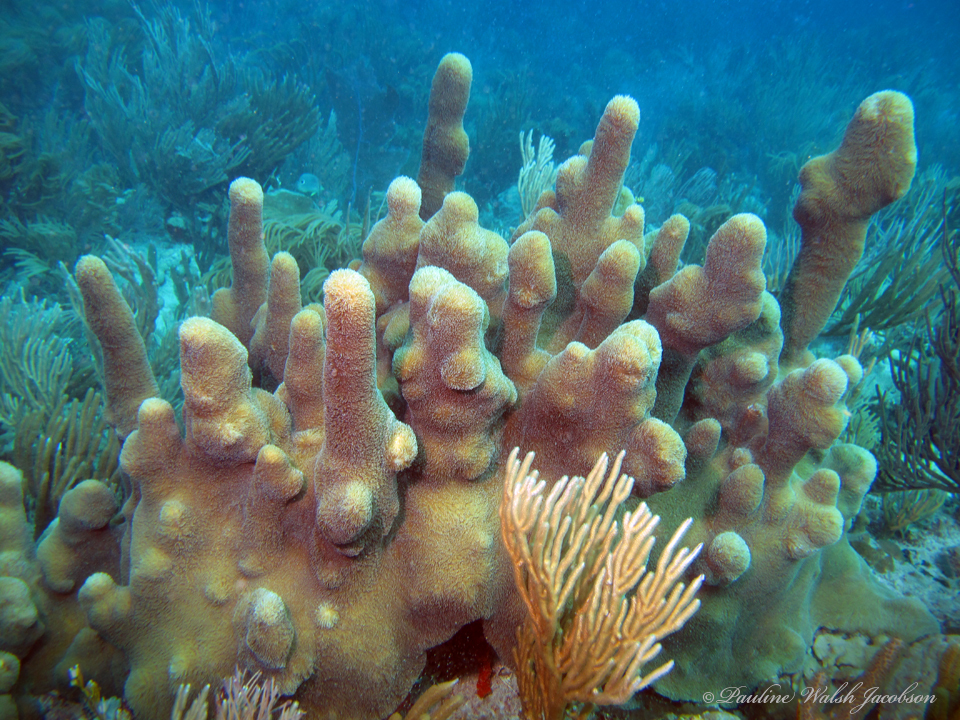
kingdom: Animalia
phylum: Cnidaria
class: Anthozoa
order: Scleractinia
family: Meandrinidae
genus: Dendrogyra
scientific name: Dendrogyra cylindrus
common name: Pillar coral
